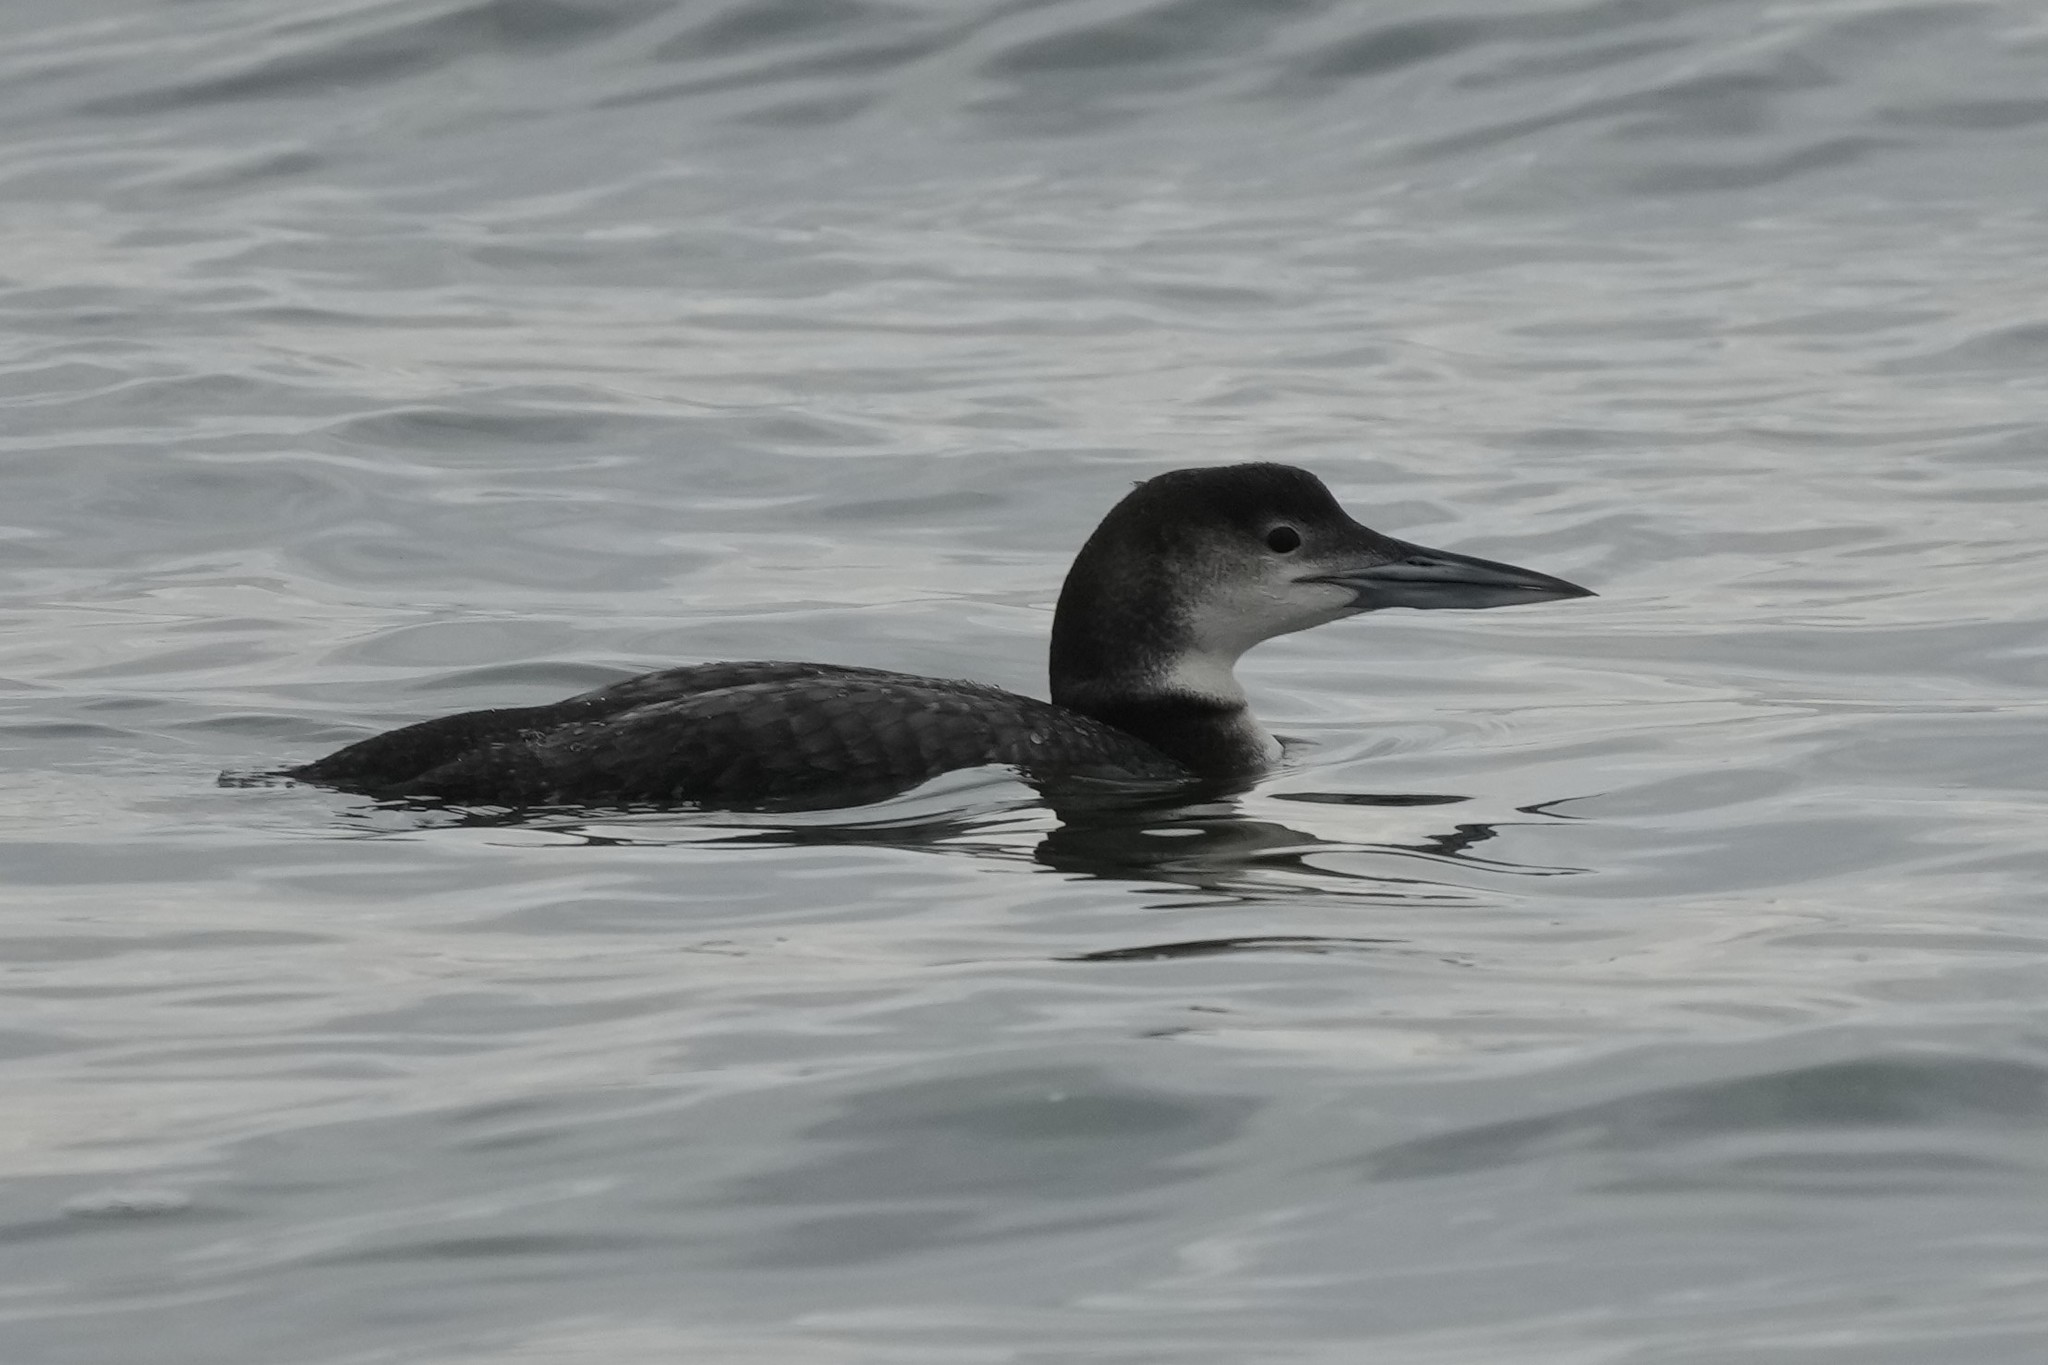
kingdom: Animalia
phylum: Chordata
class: Aves
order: Gaviiformes
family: Gaviidae
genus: Gavia
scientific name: Gavia immer
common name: Common loon
